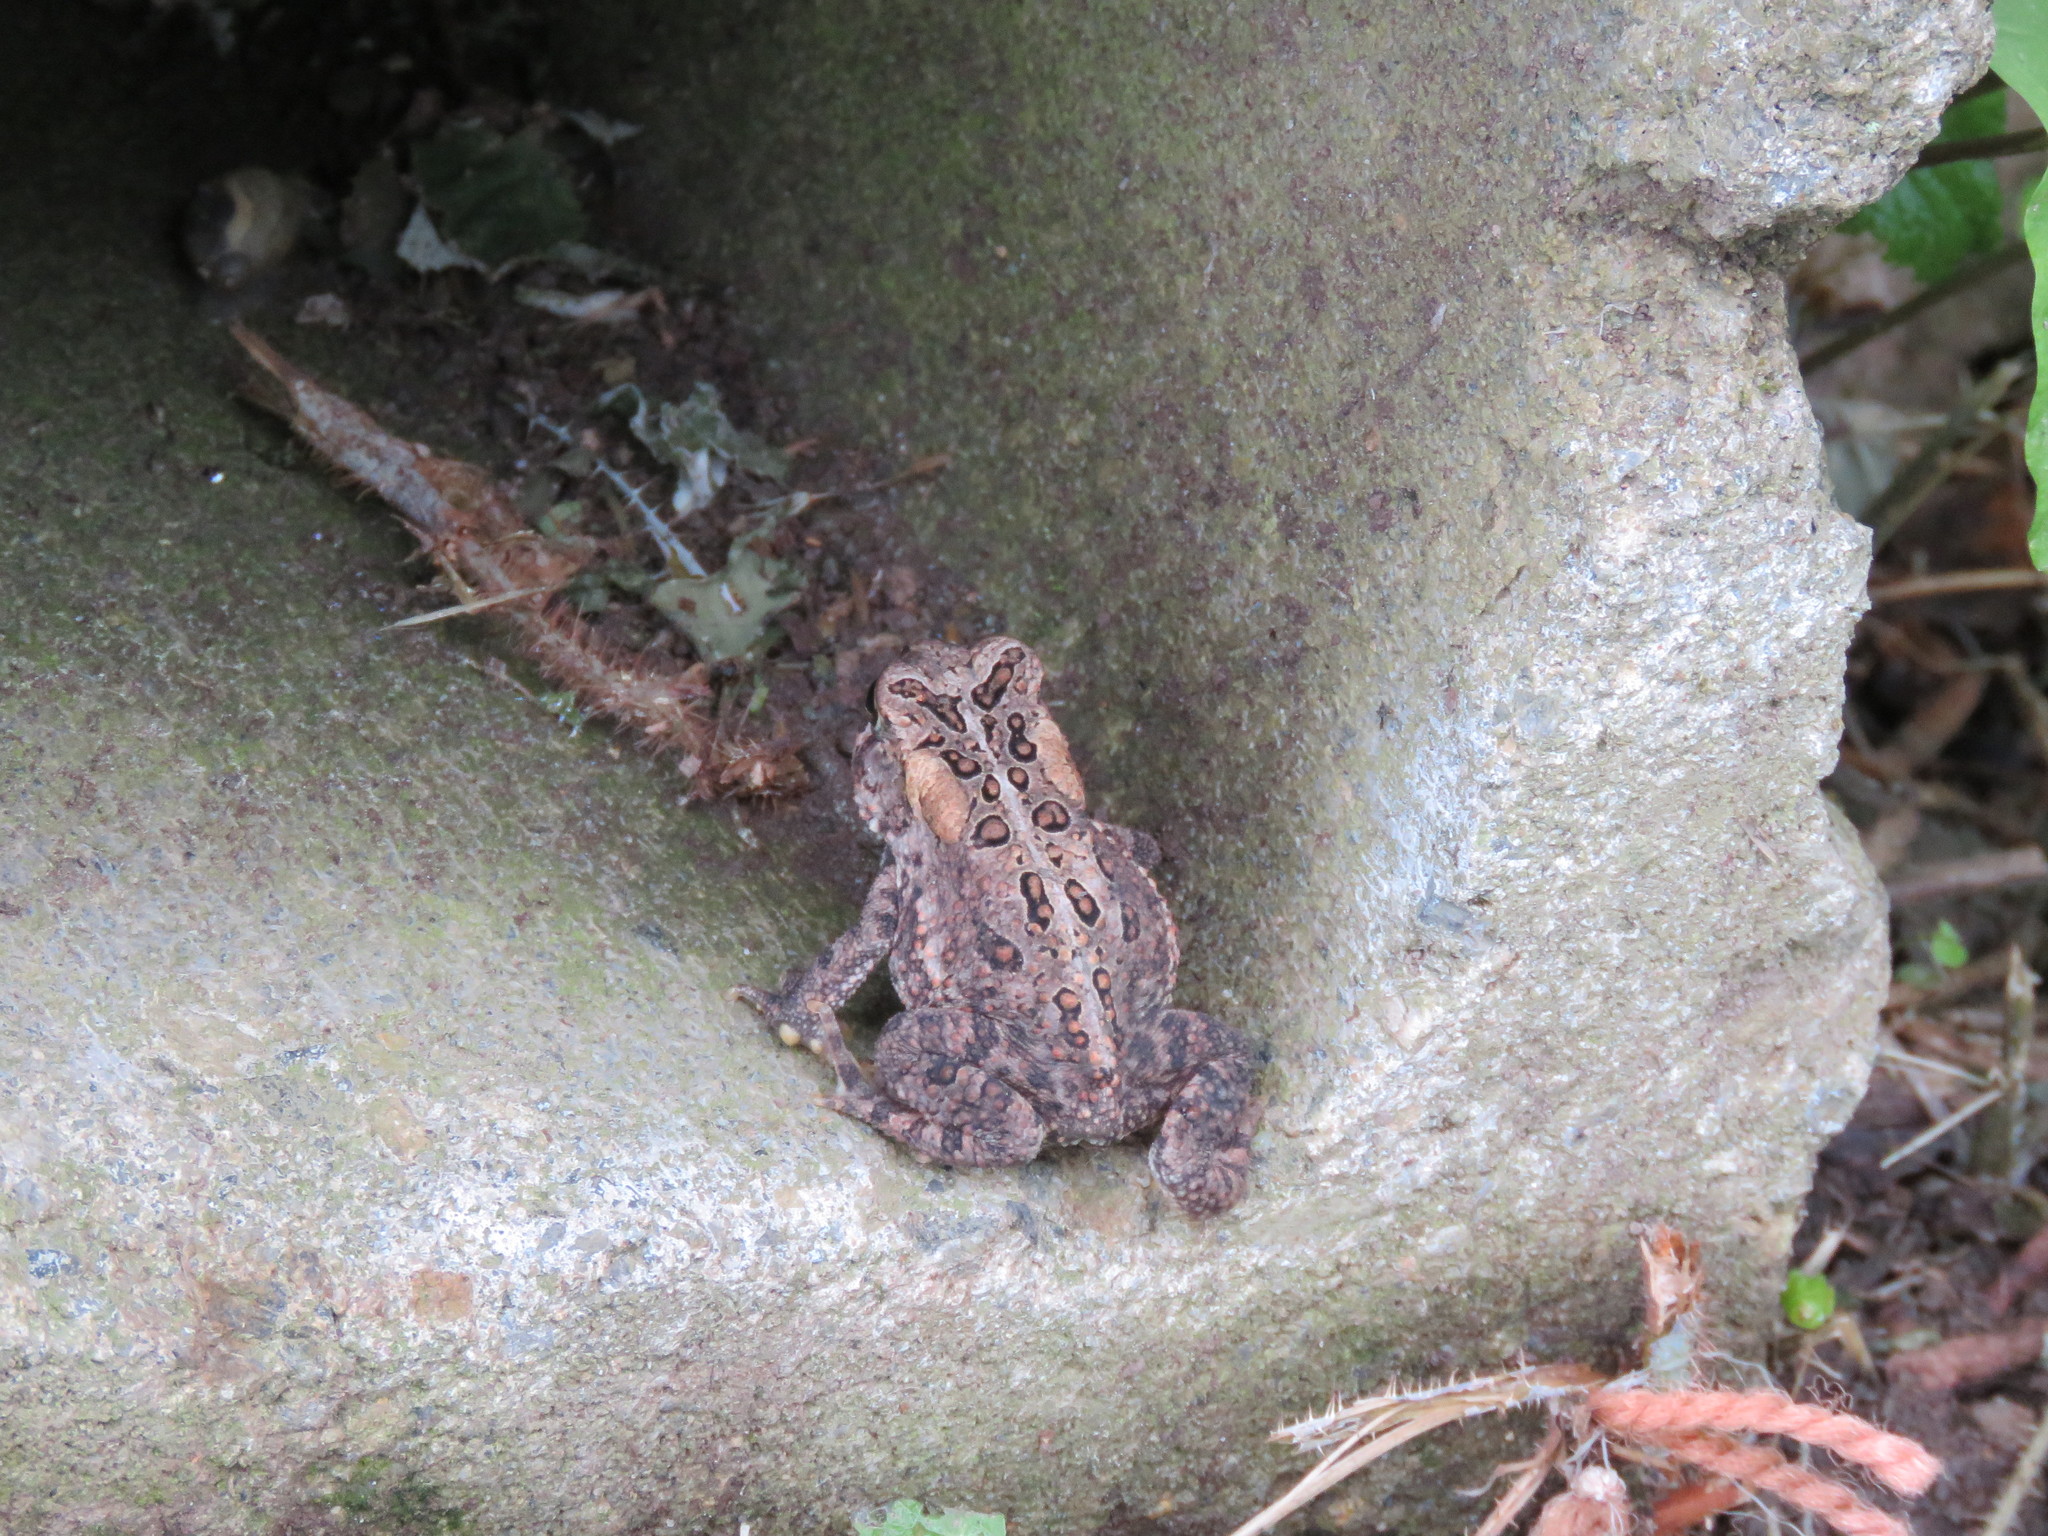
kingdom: Animalia
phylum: Chordata
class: Amphibia
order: Anura
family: Bufonidae
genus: Anaxyrus
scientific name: Anaxyrus americanus
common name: American toad
